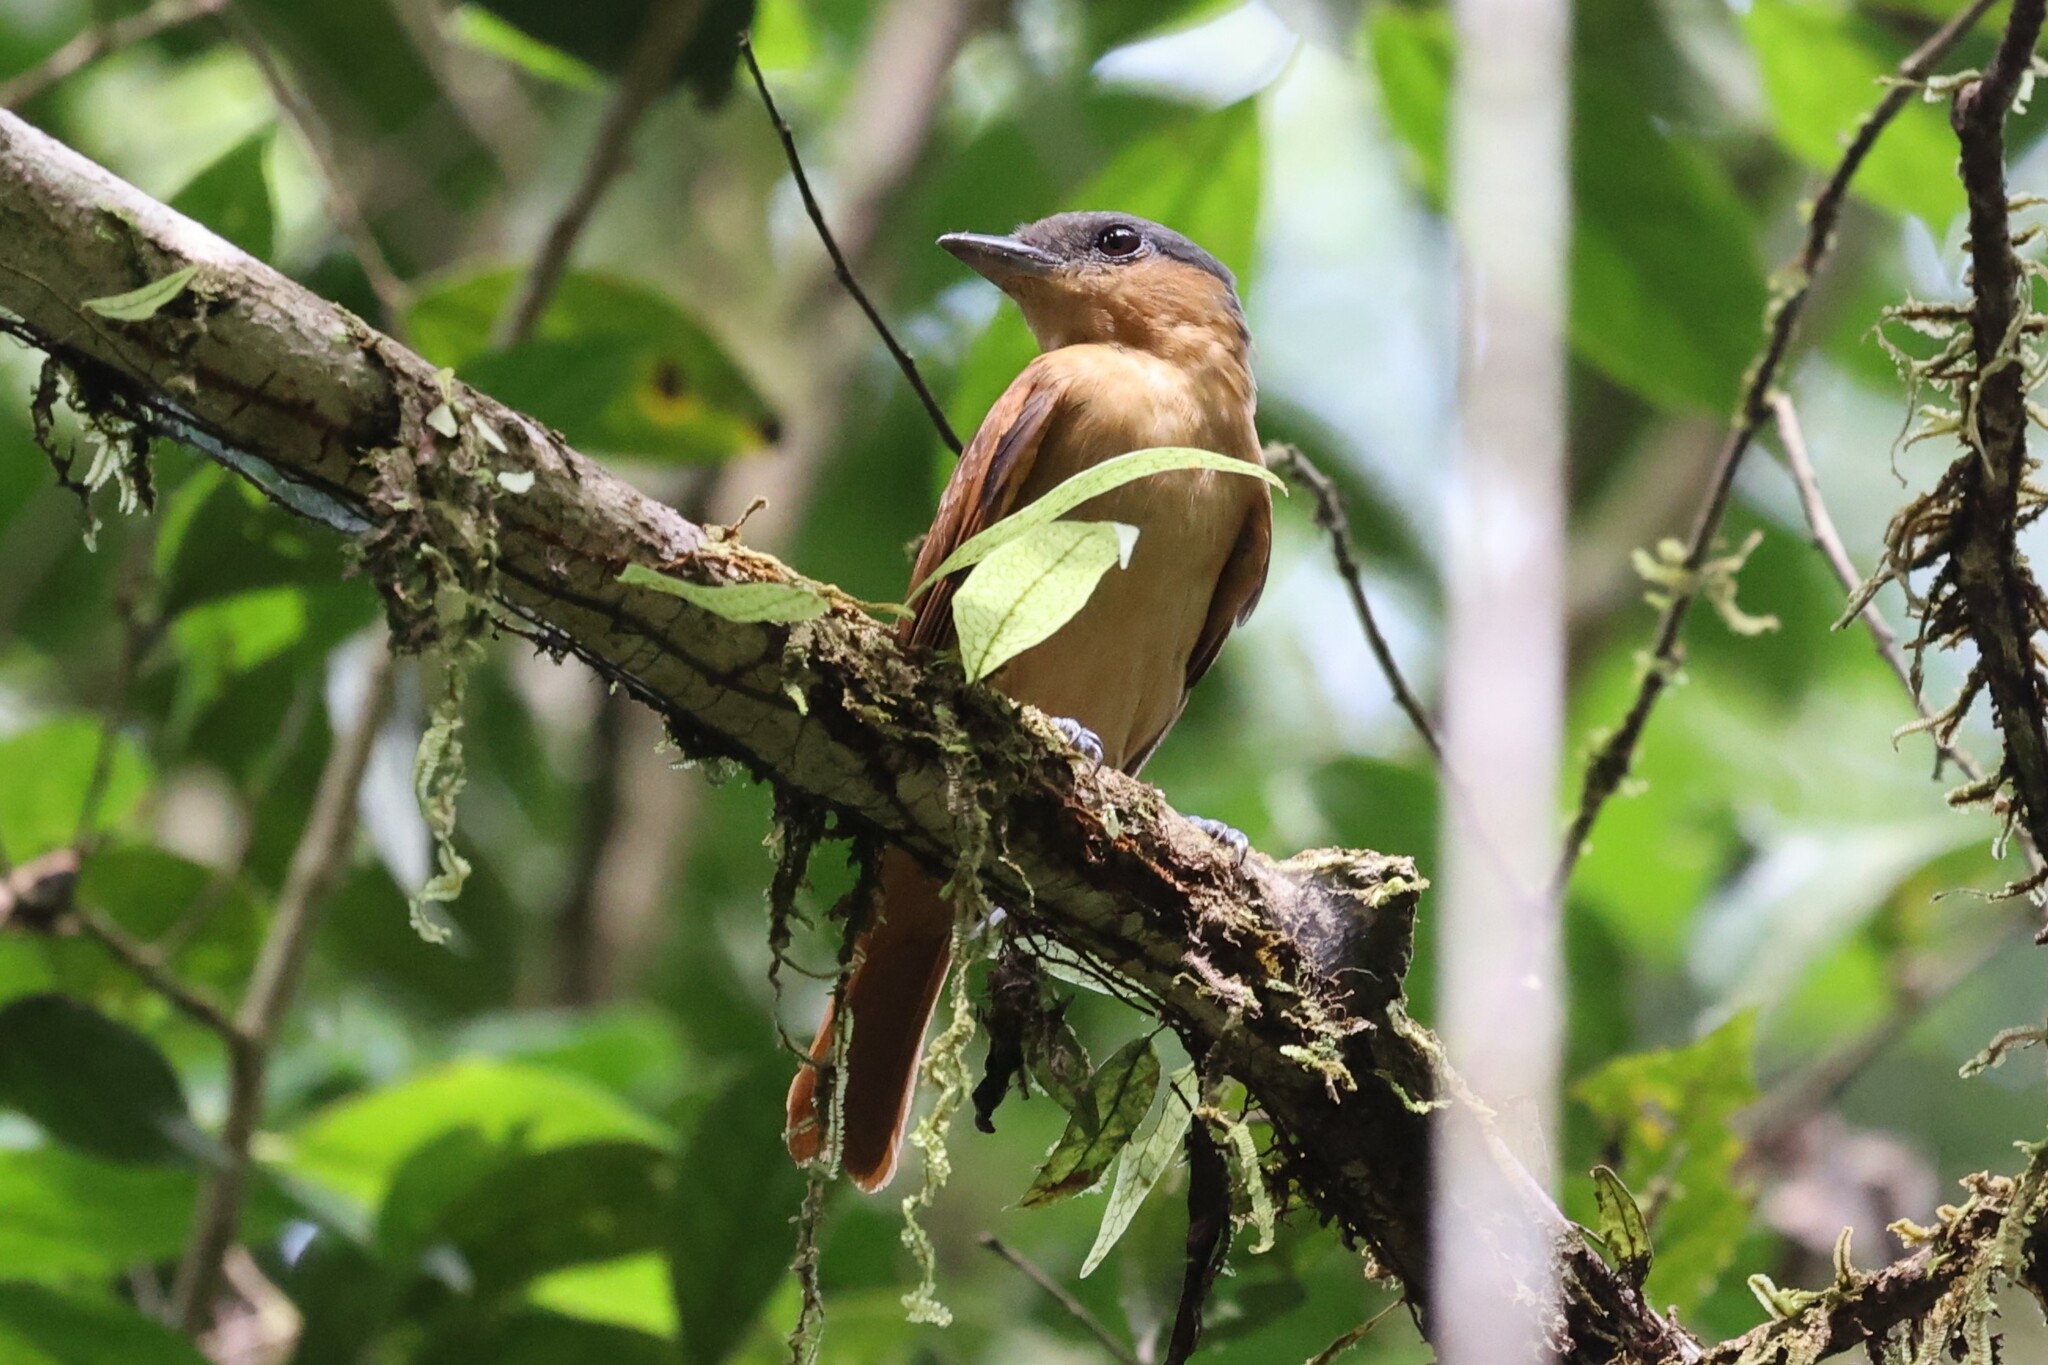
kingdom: Animalia
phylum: Chordata
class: Aves
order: Passeriformes
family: Cotingidae
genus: Pachyramphus
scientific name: Pachyramphus minor
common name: Pink-throated becard
